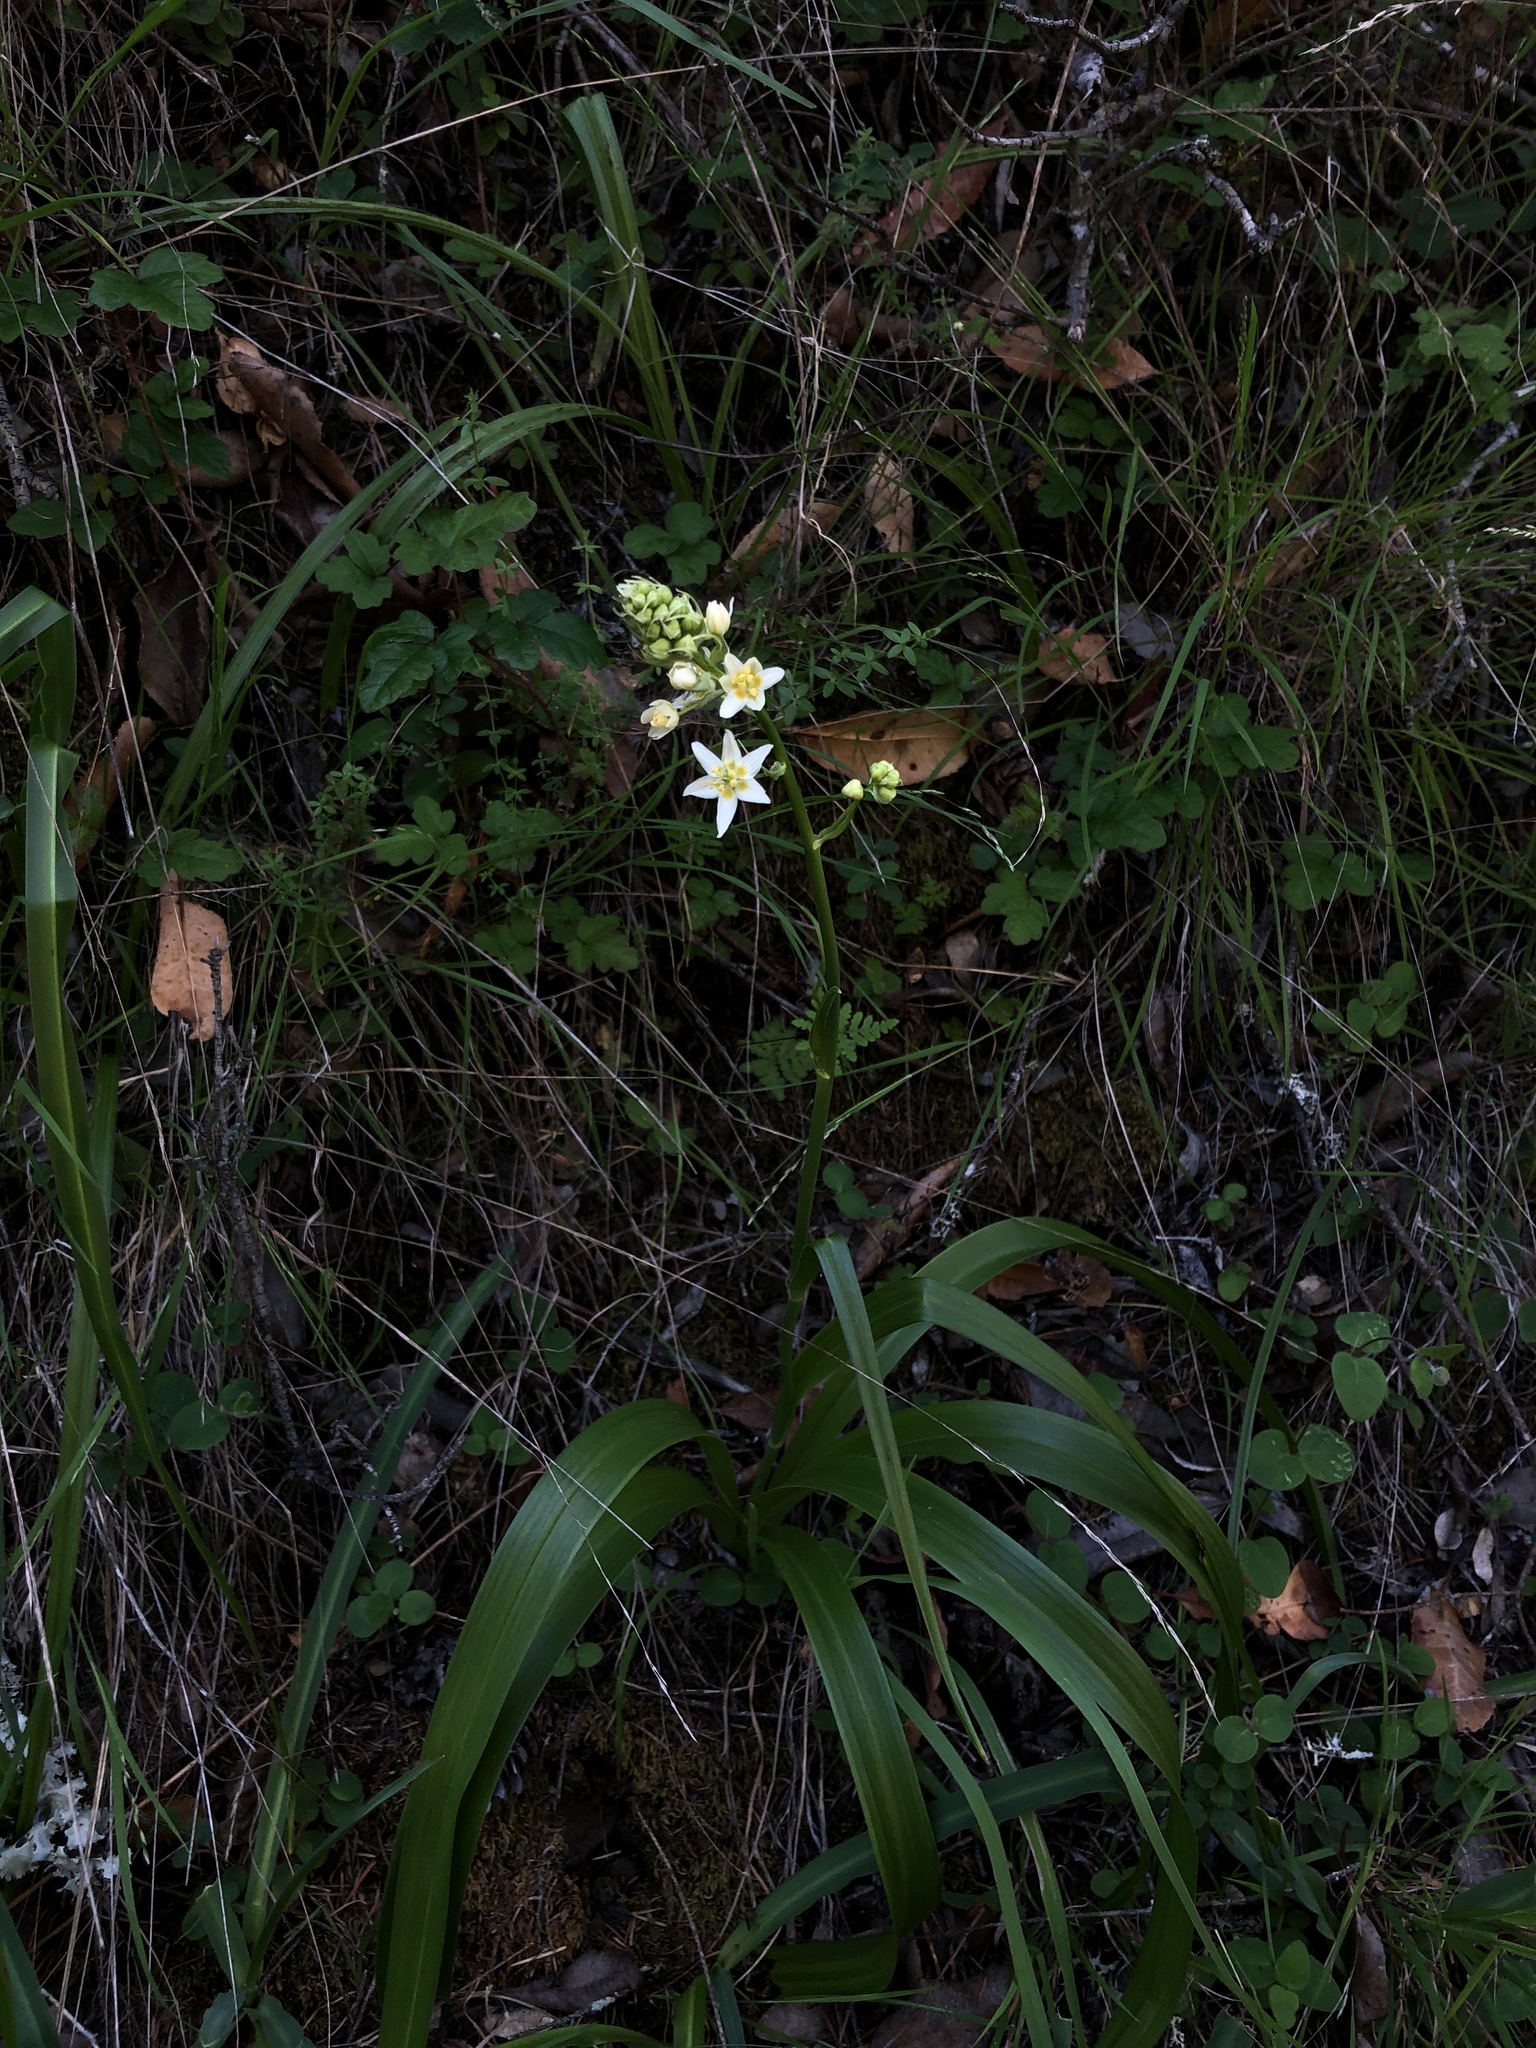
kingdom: Plantae
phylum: Tracheophyta
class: Liliopsida
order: Liliales
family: Melanthiaceae
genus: Toxicoscordion
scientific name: Toxicoscordion fremontii
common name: Fremont's death camas
